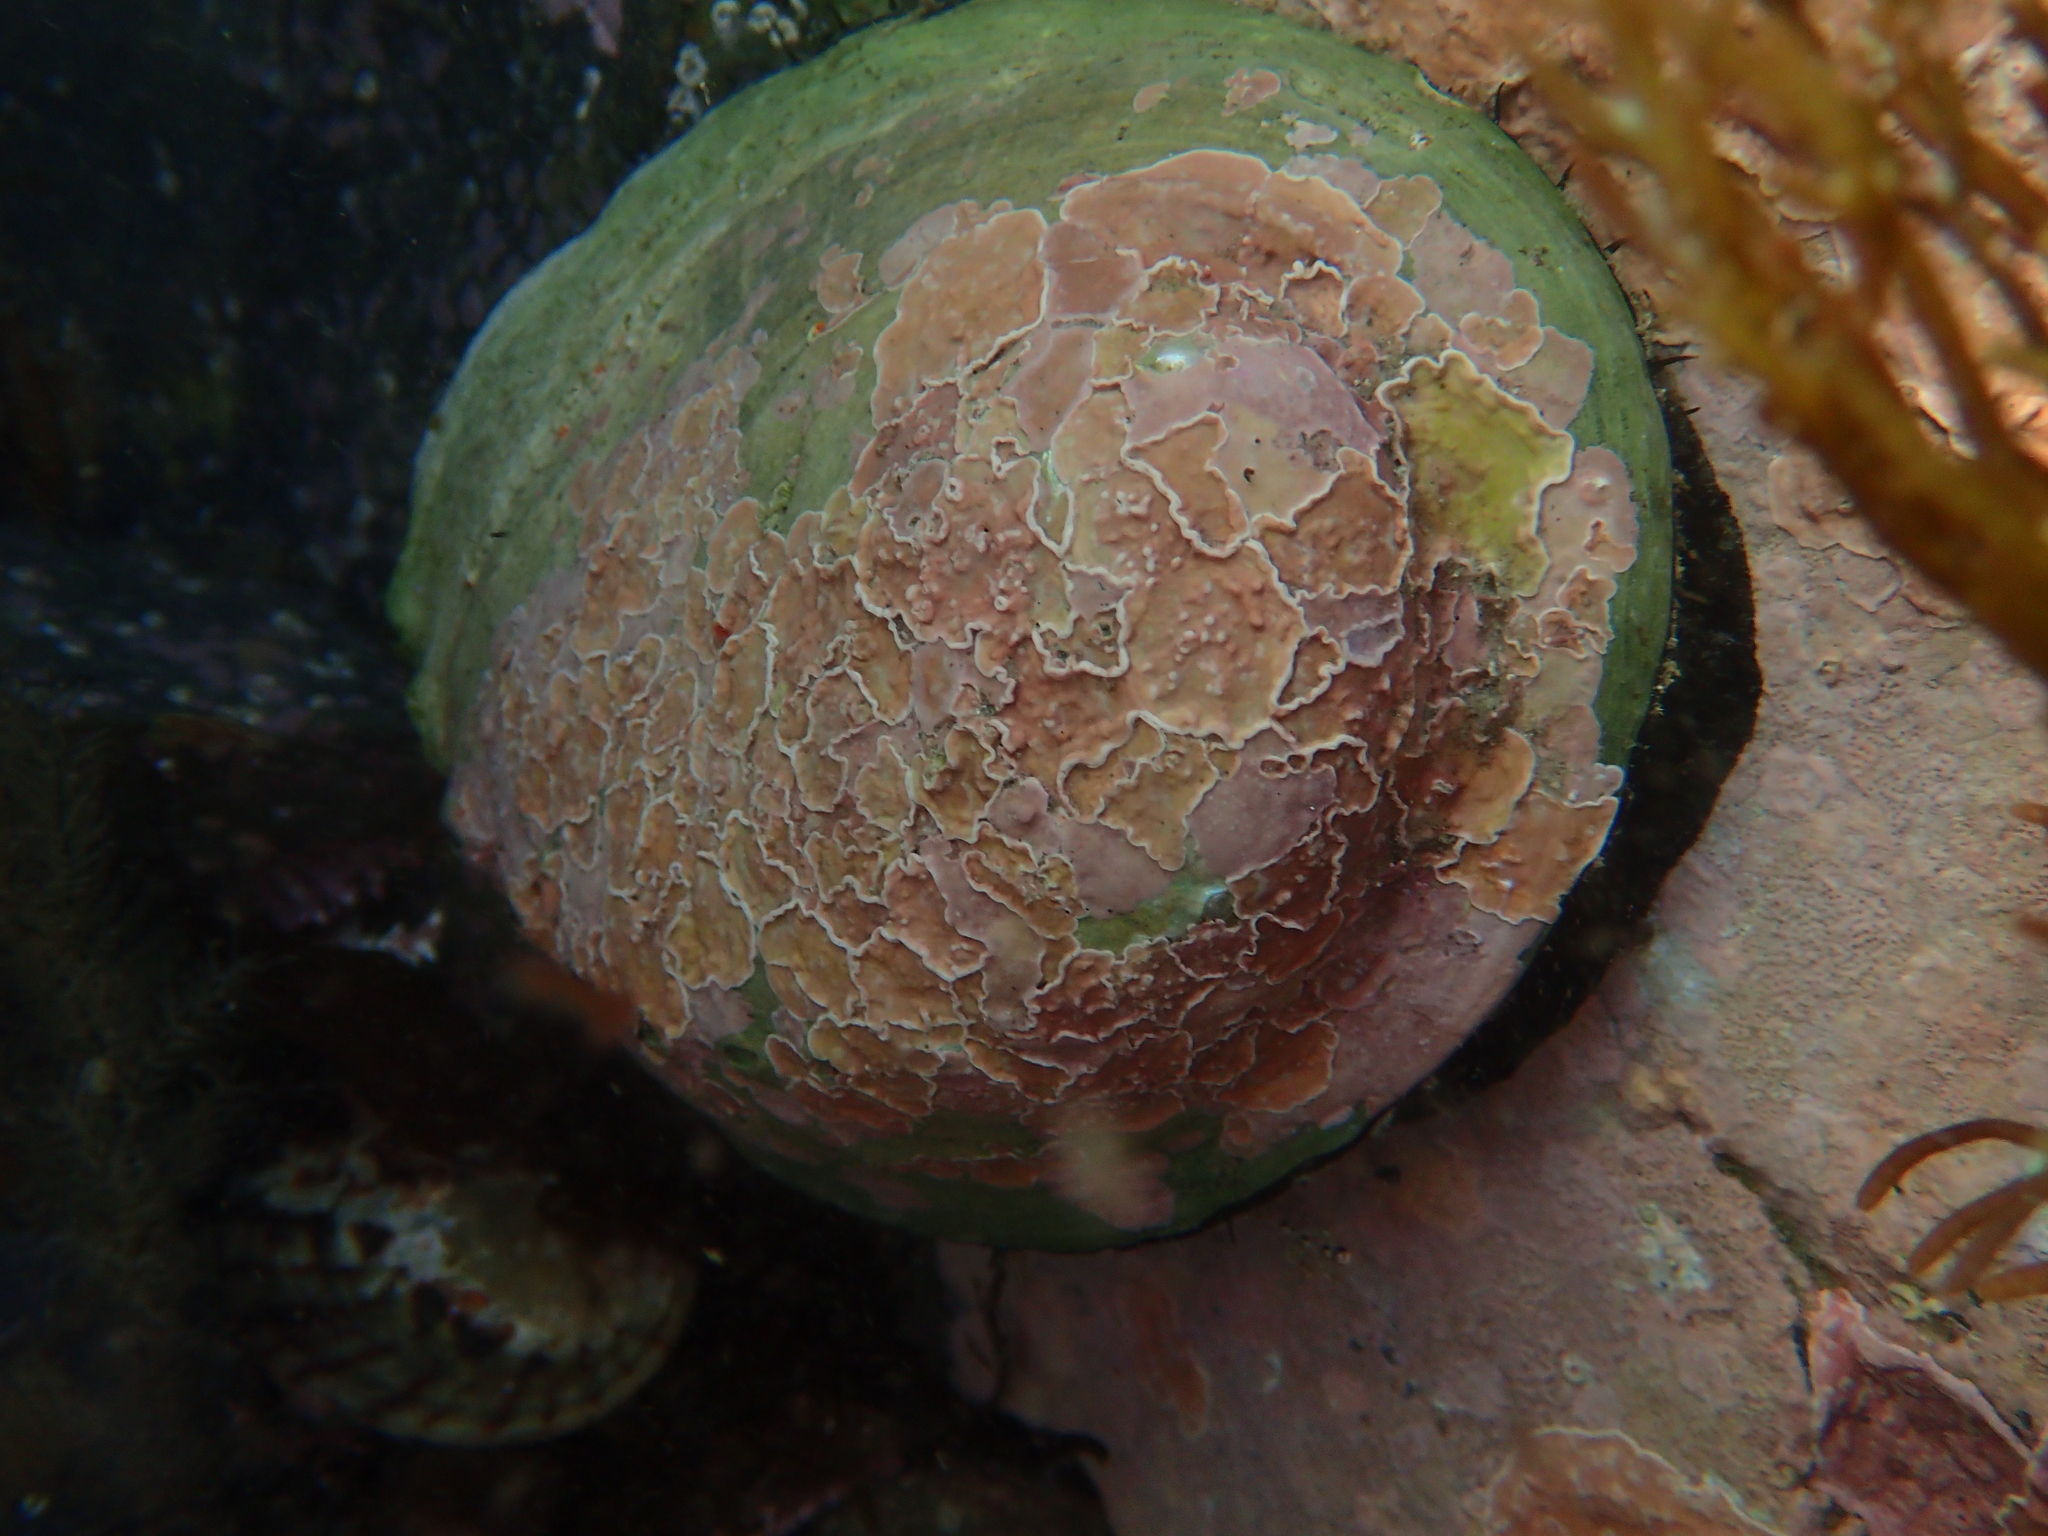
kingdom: Animalia
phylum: Mollusca
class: Gastropoda
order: Lepetellida
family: Haliotidae
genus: Haliotis
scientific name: Haliotis iris
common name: Abalone
